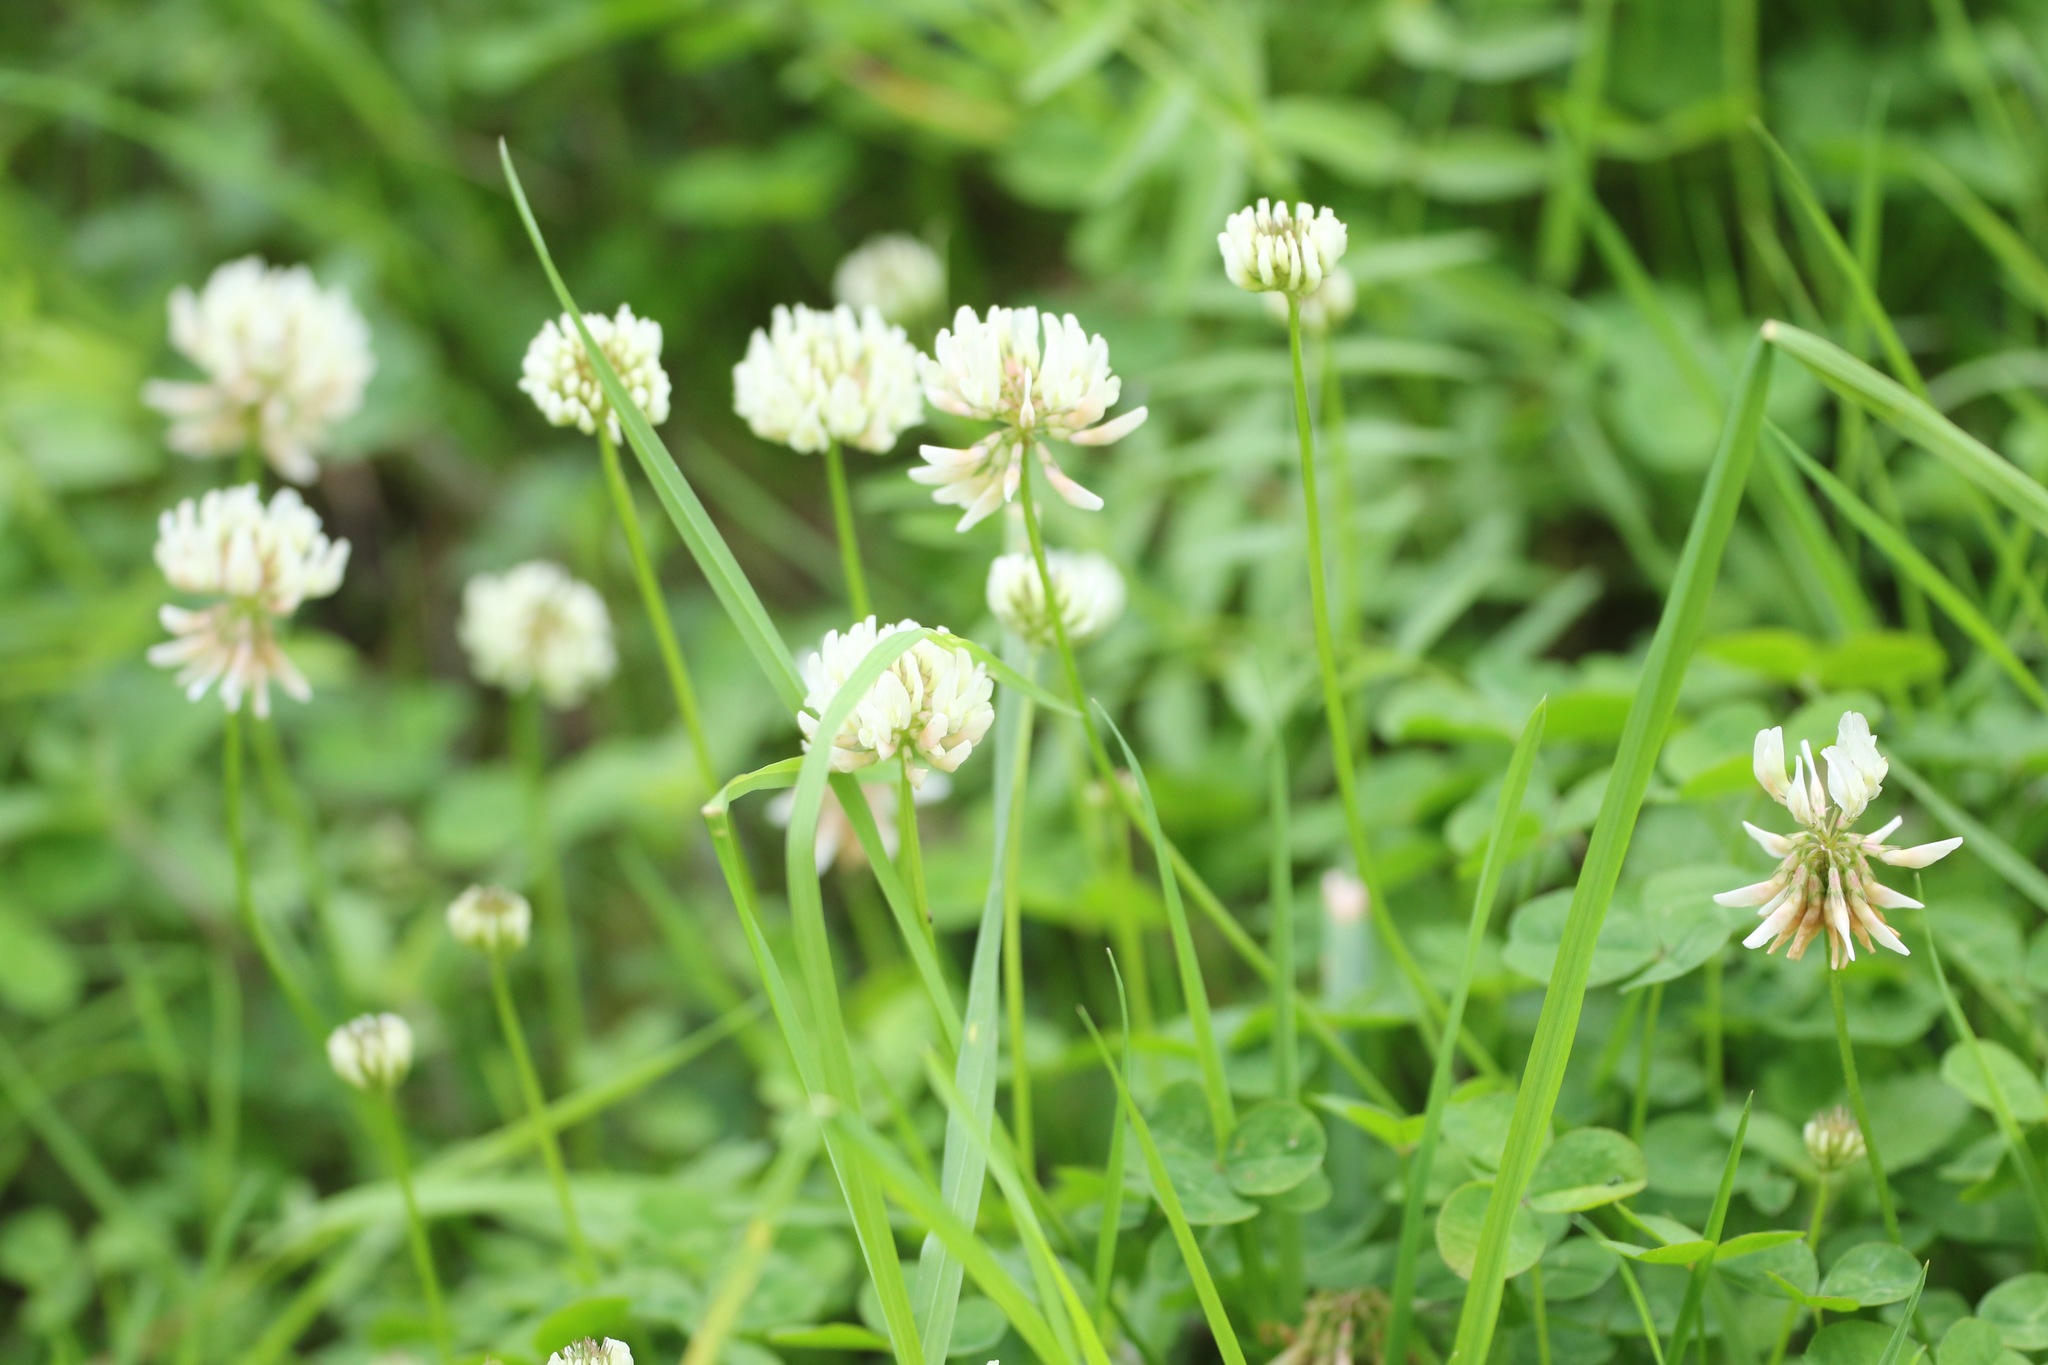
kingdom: Plantae
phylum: Tracheophyta
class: Magnoliopsida
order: Fabales
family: Fabaceae
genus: Trifolium
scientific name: Trifolium repens
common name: White clover
